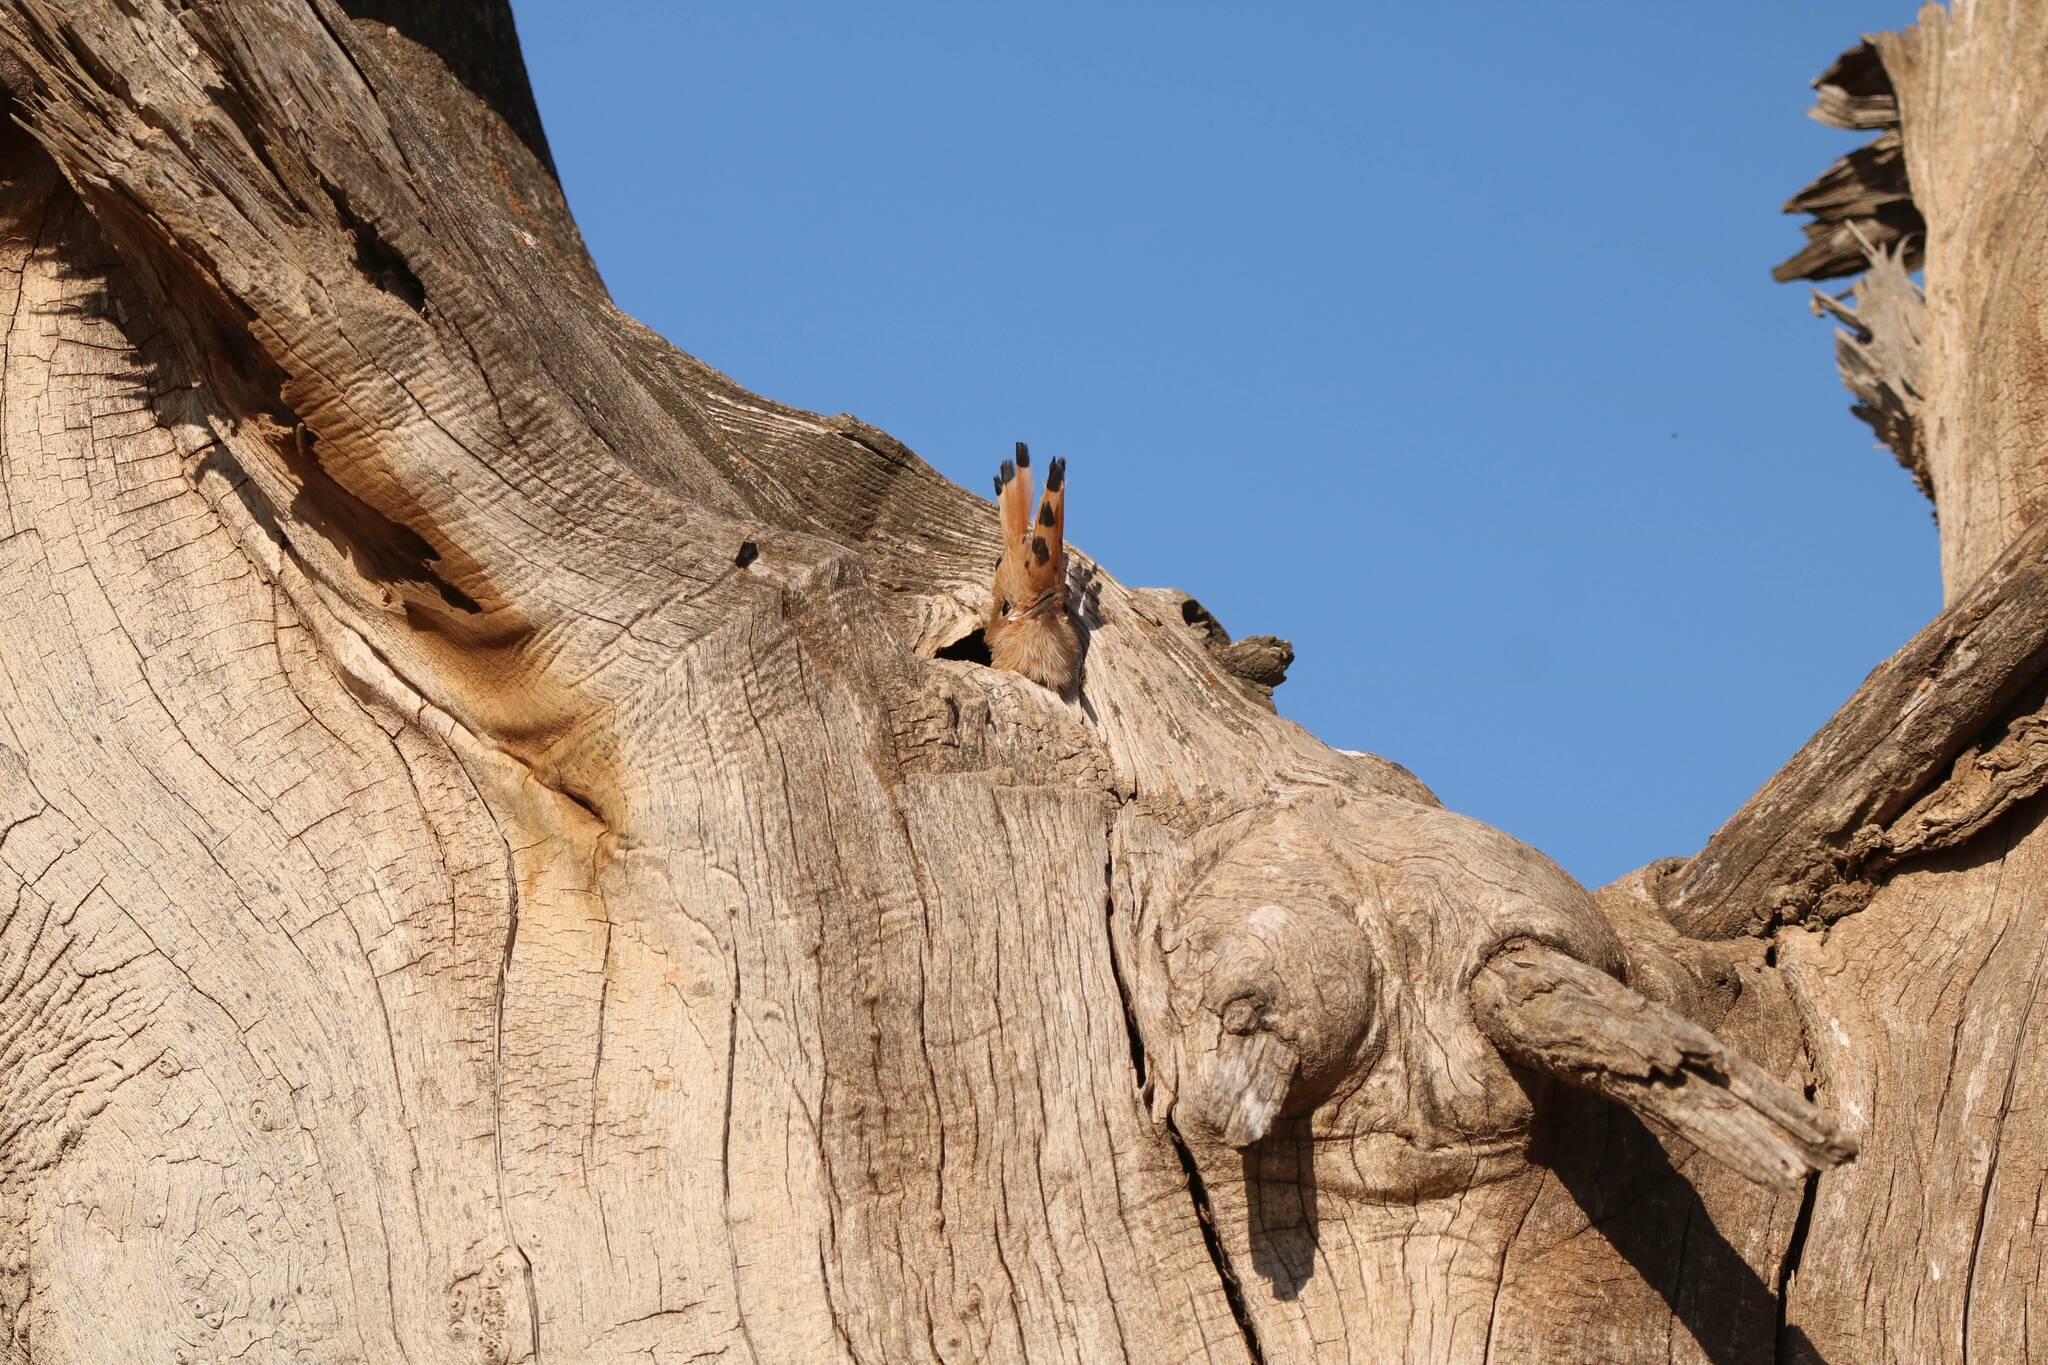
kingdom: Animalia
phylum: Chordata
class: Aves
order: Bucerotiformes
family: Upupidae
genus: Upupa
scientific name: Upupa epops
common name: Eurasian hoopoe
